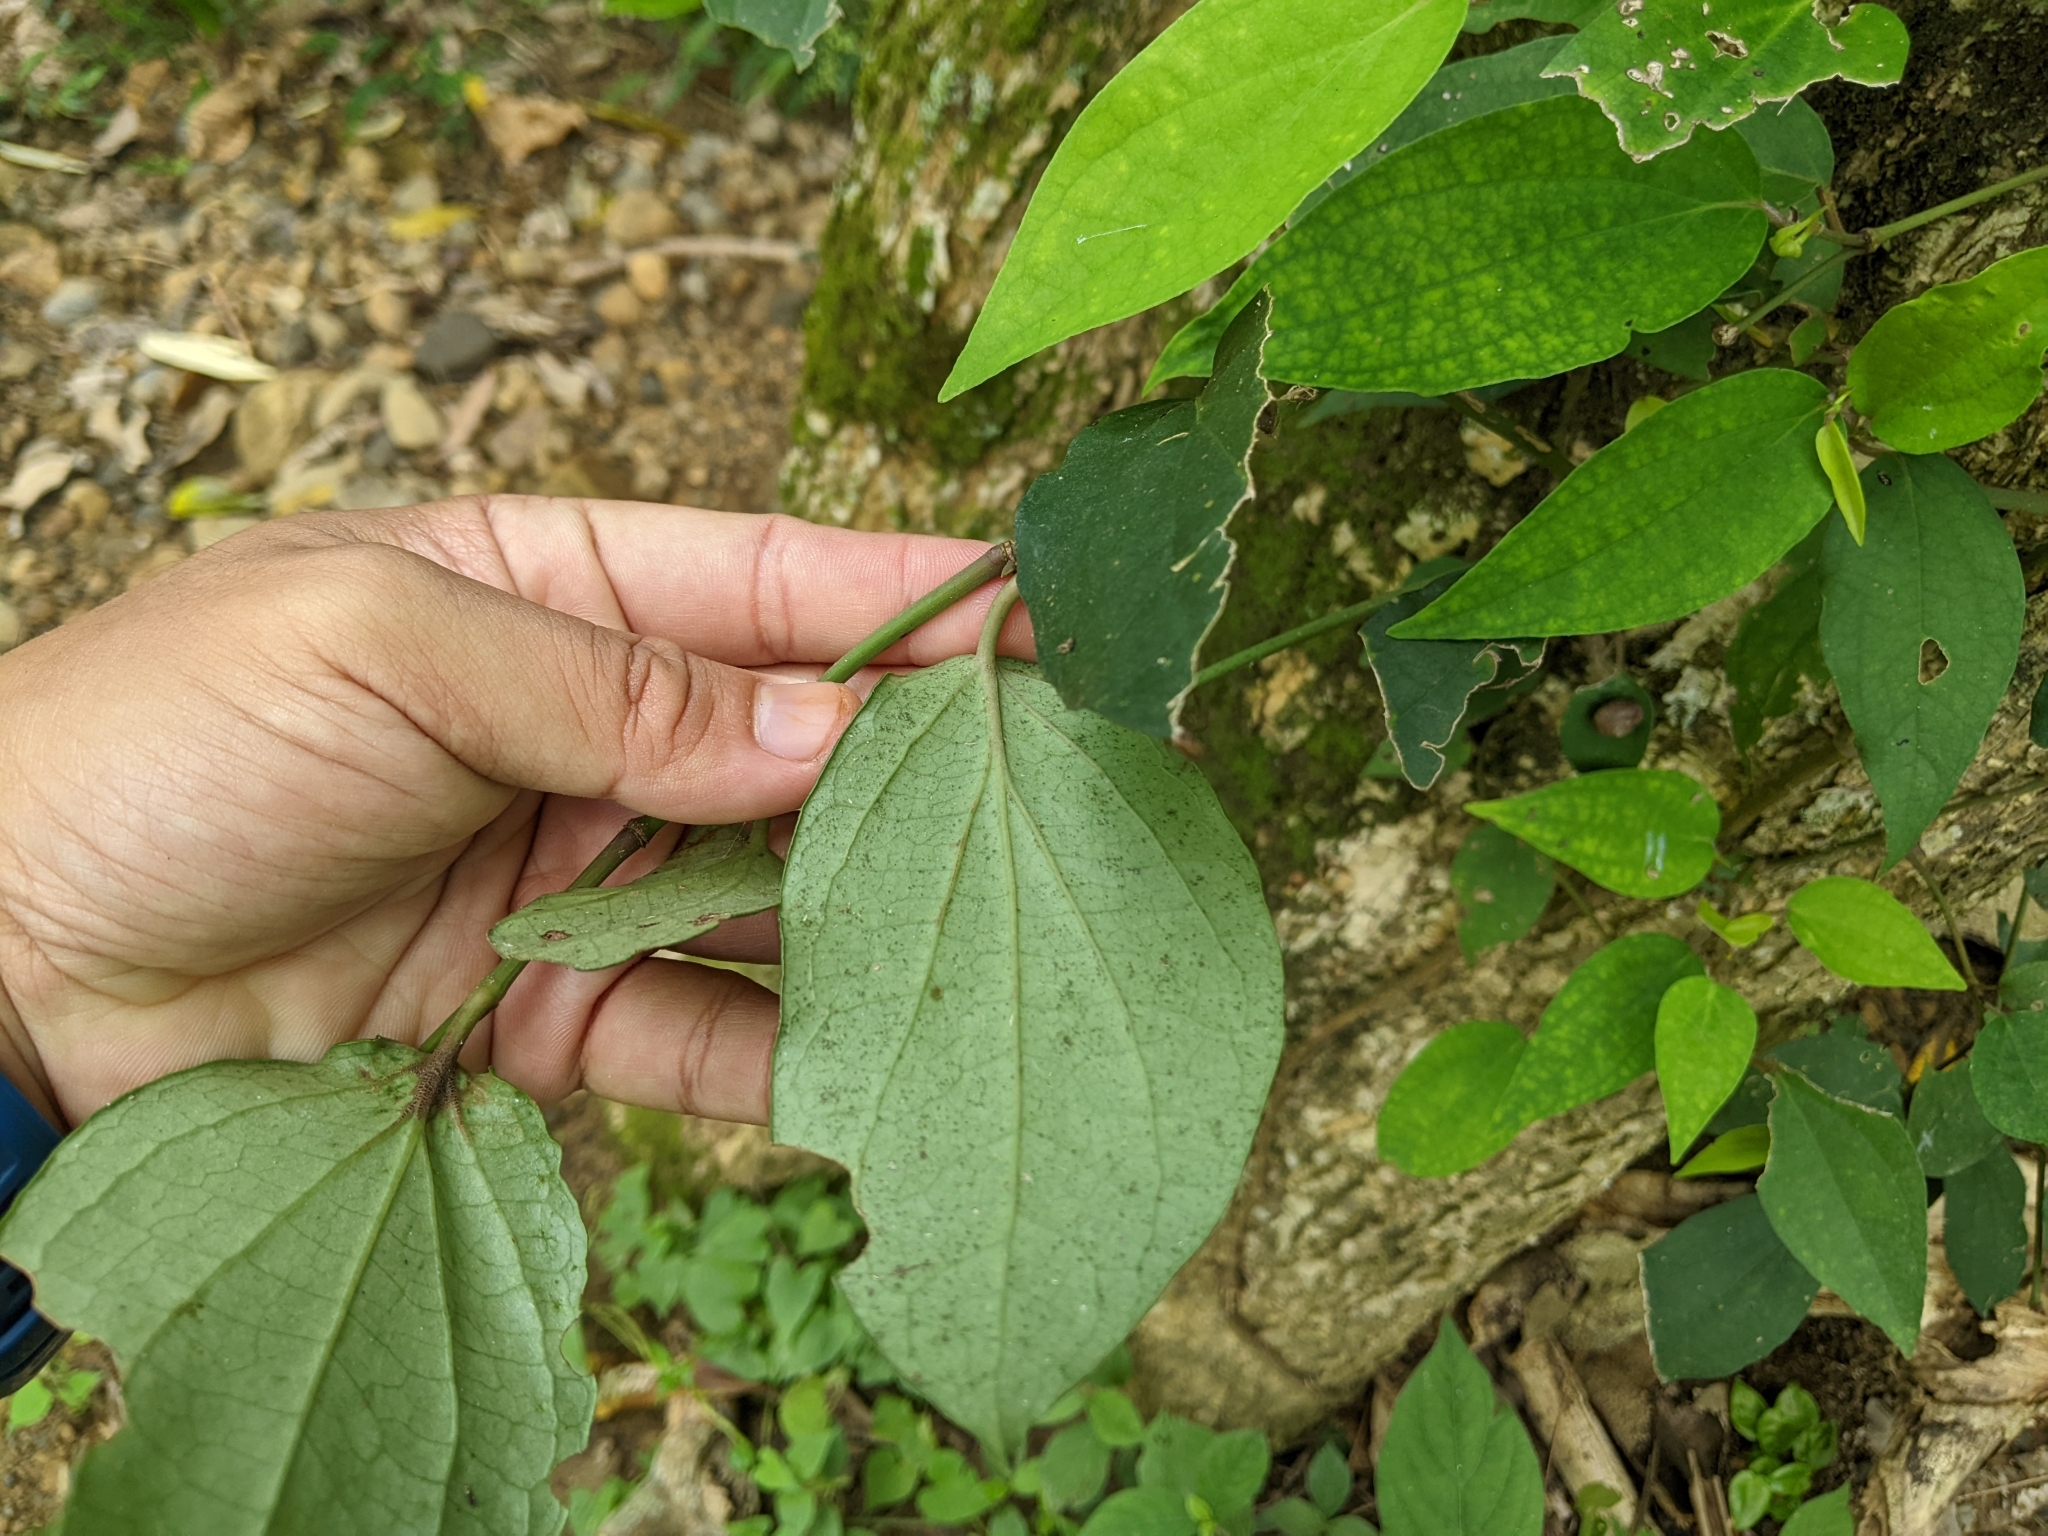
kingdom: Plantae
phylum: Tracheophyta
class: Magnoliopsida
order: Piperales
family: Piperaceae
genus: Piper
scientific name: Piper kadsura
